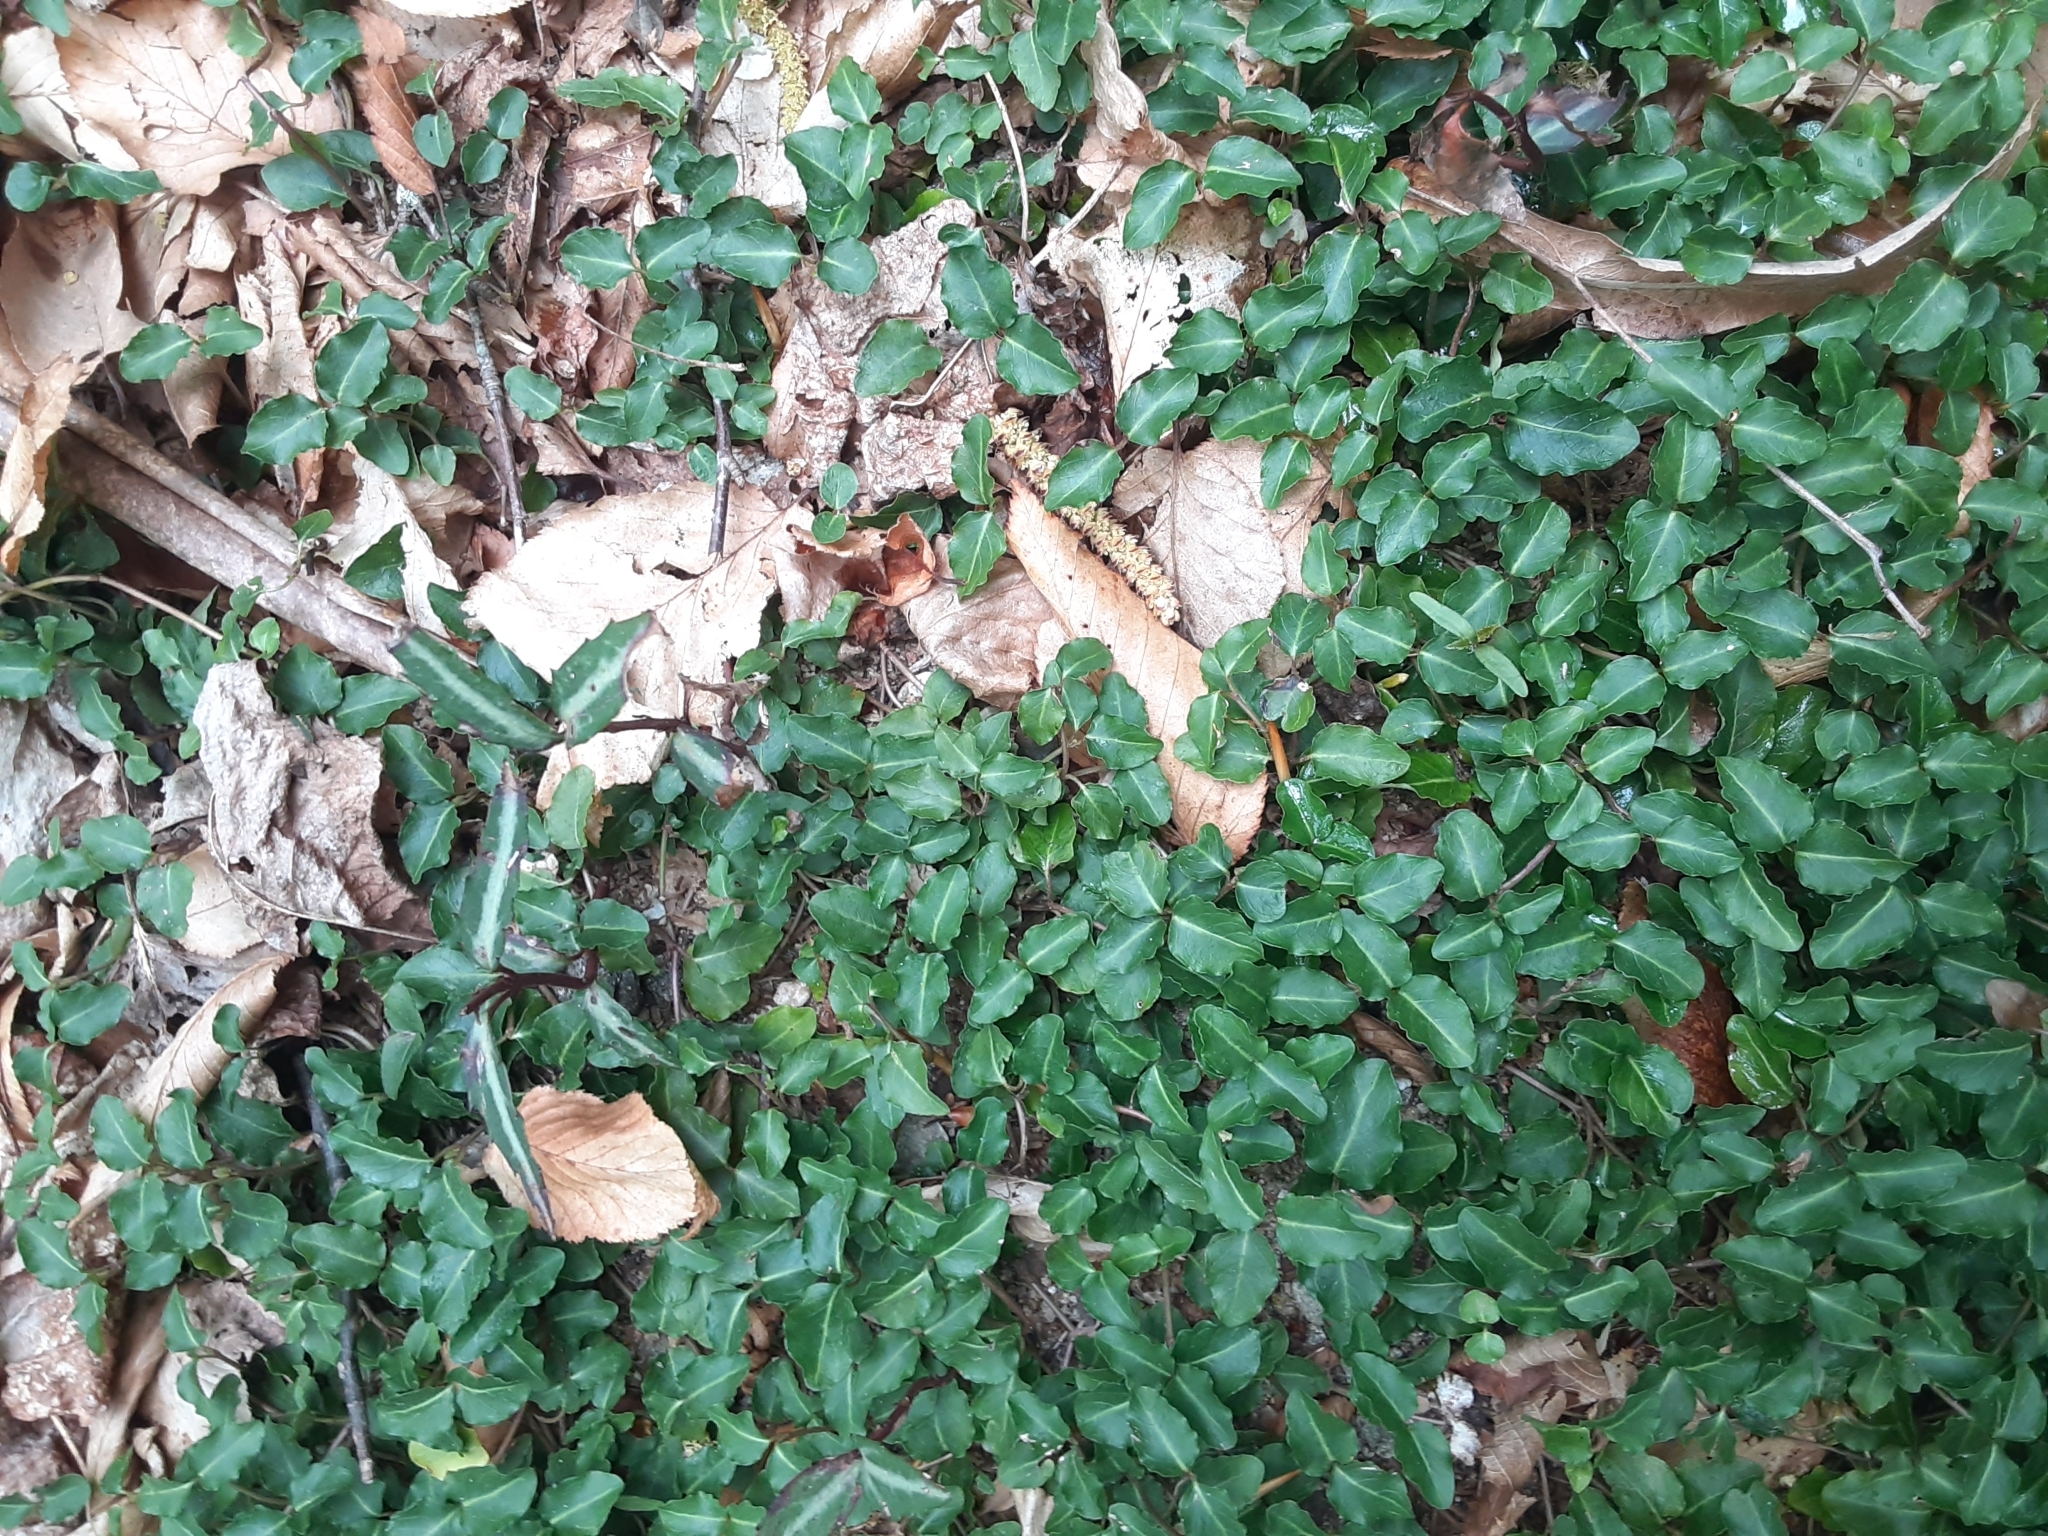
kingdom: Plantae
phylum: Tracheophyta
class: Magnoliopsida
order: Gentianales
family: Rubiaceae
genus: Mitchella
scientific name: Mitchella repens
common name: Partridge-berry
